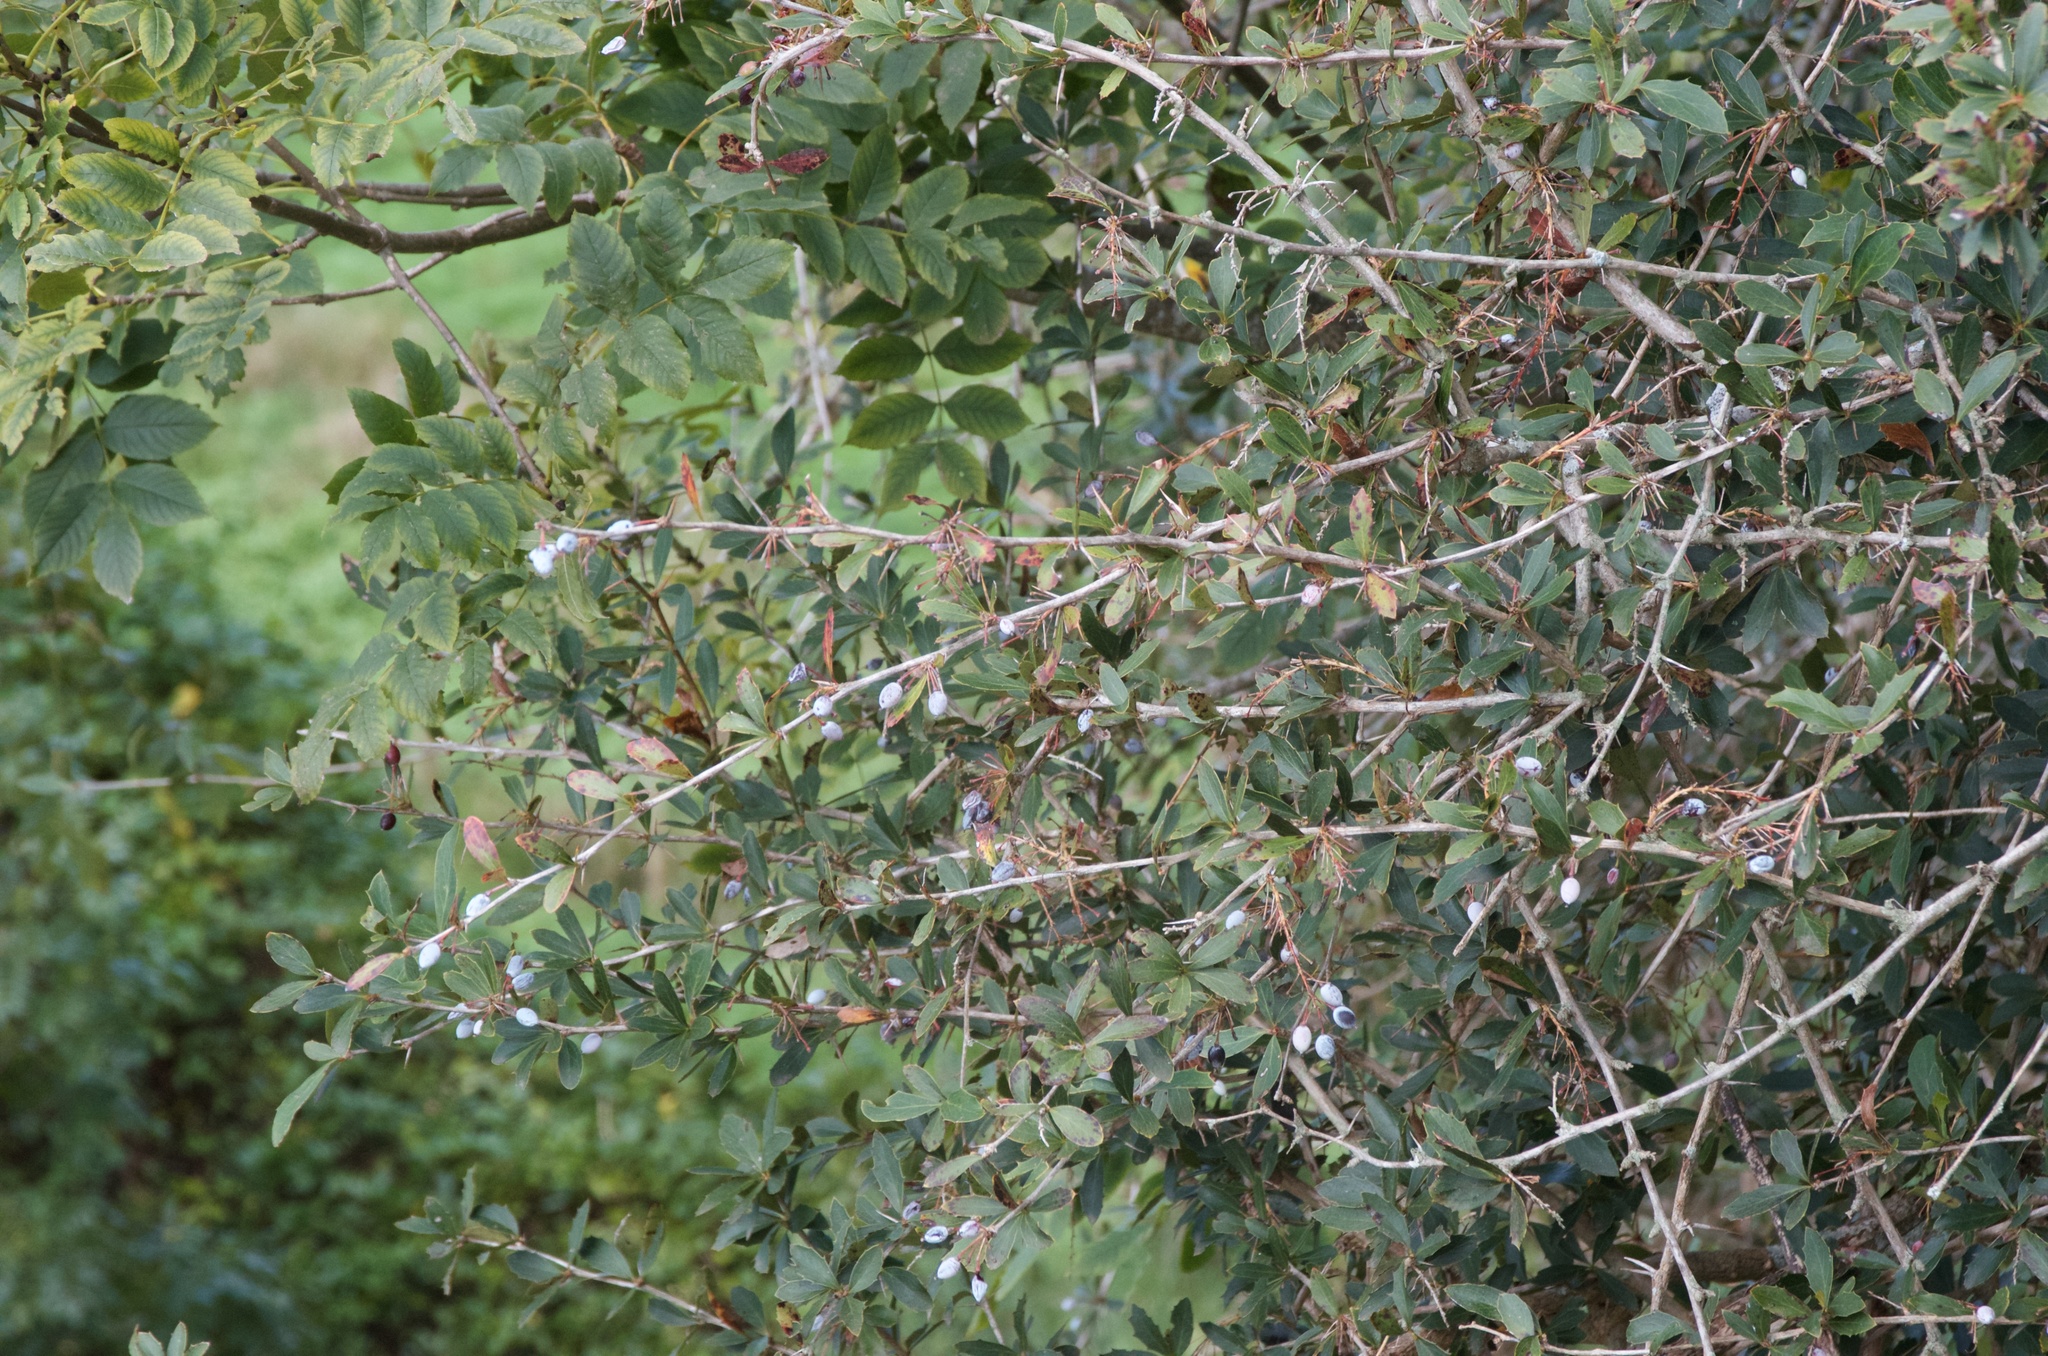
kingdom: Plantae
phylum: Tracheophyta
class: Magnoliopsida
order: Ranunculales
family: Berberidaceae
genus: Berberis
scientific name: Berberis glaucocarpa
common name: Great barberry
